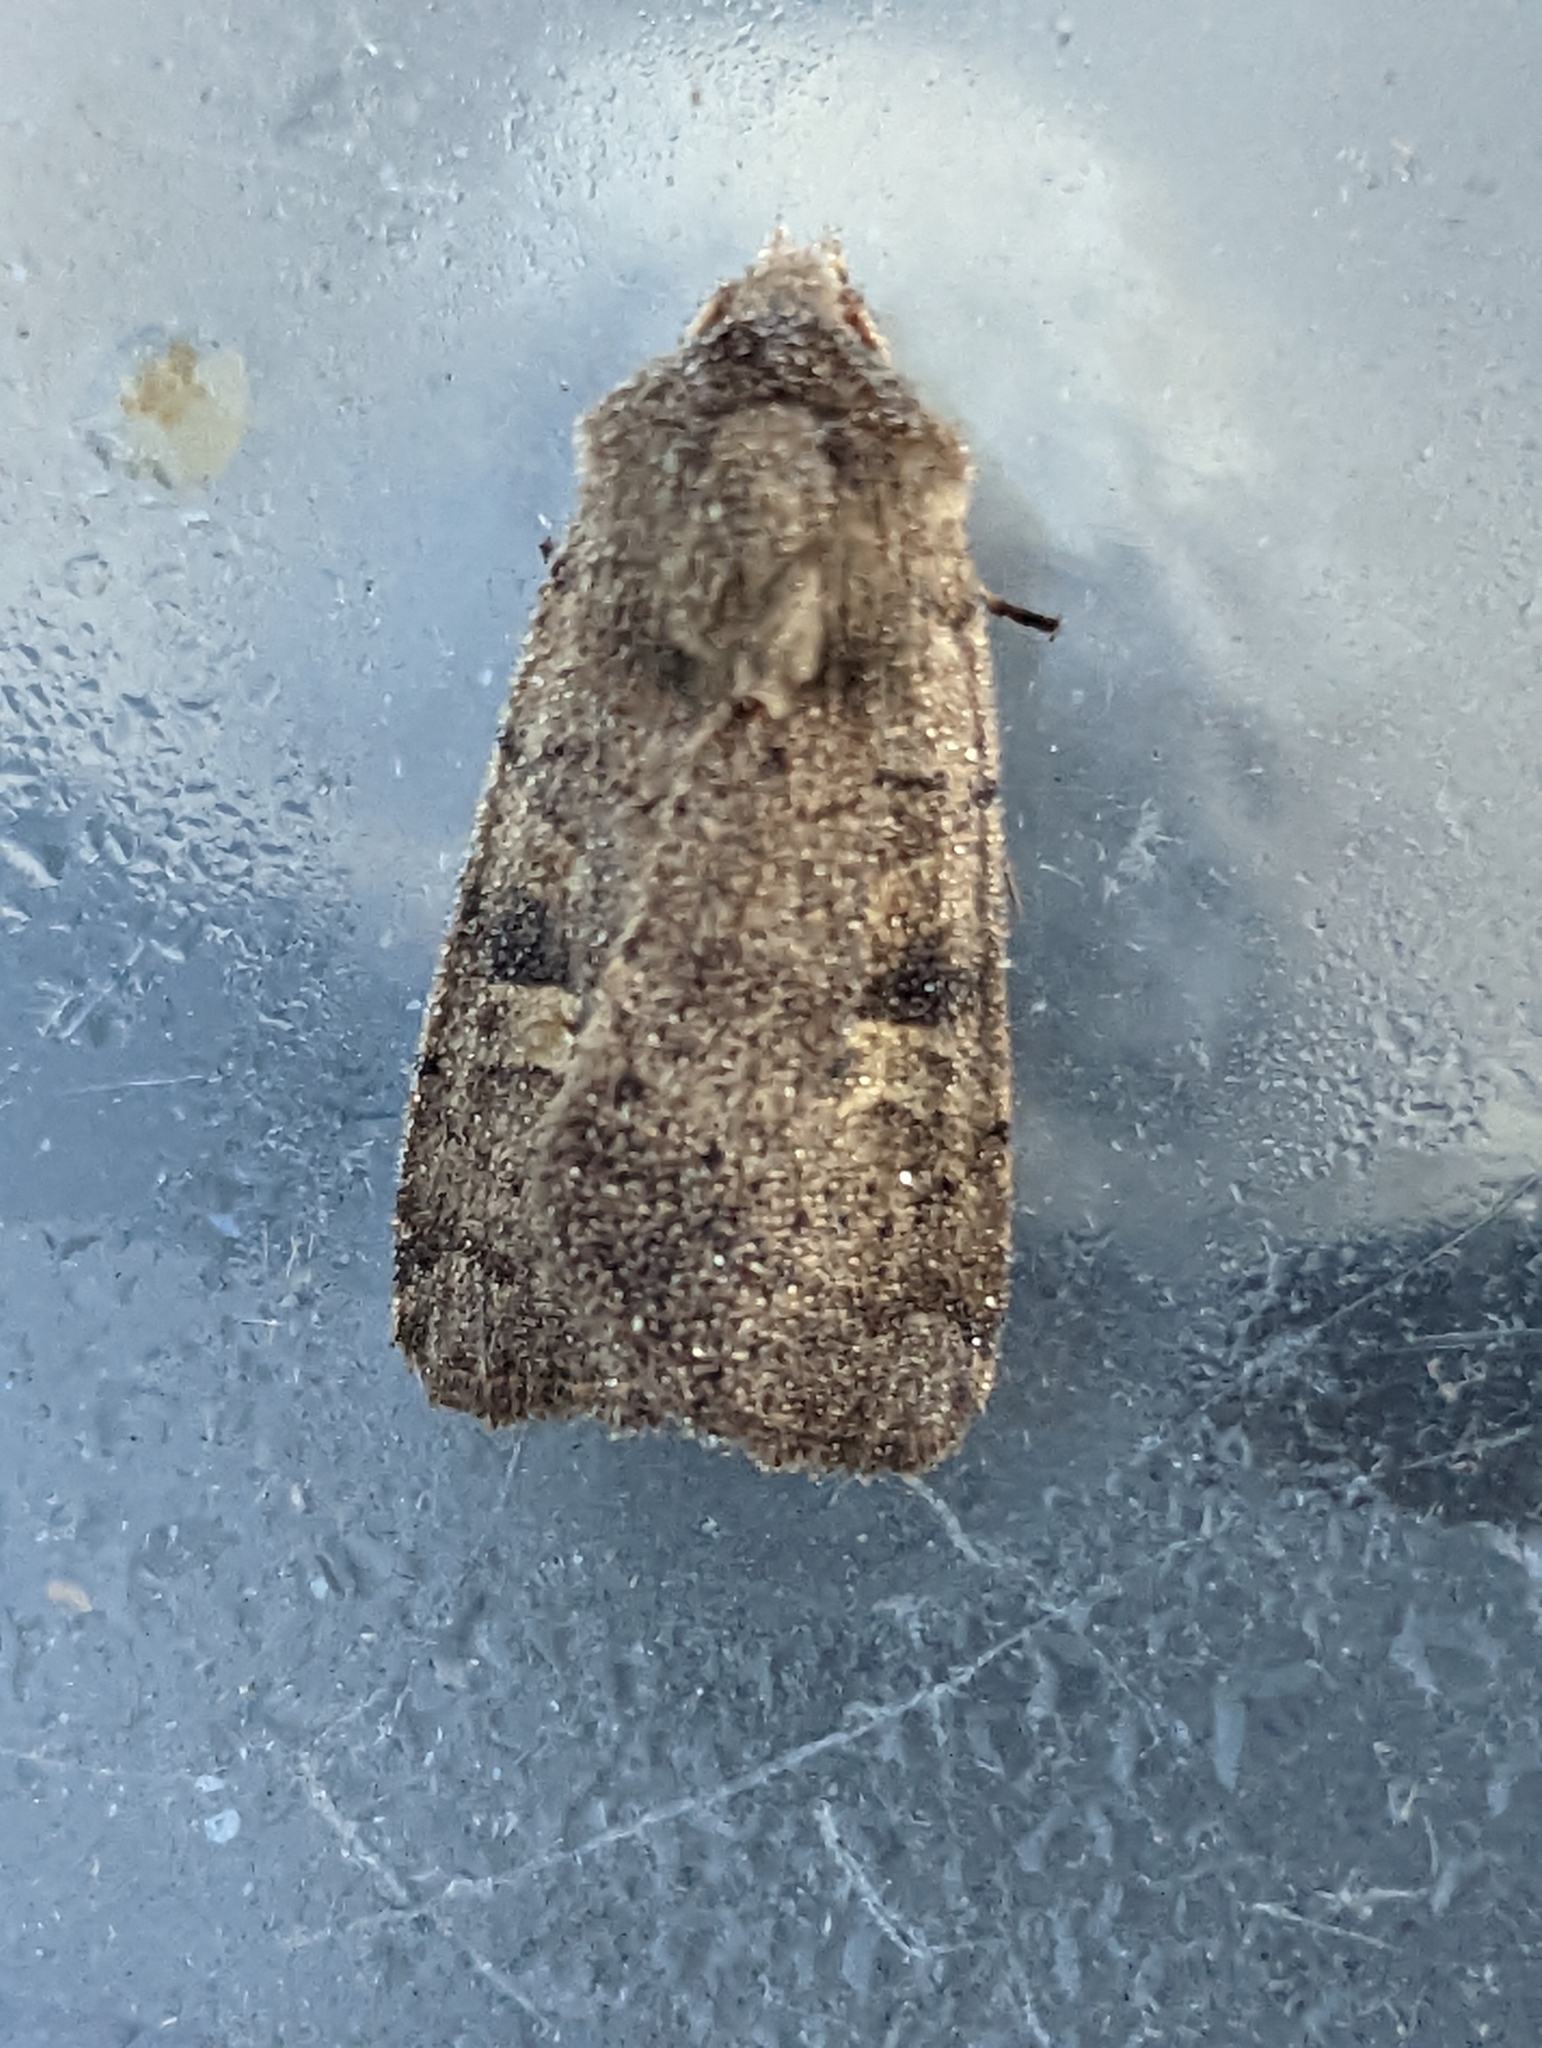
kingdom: Animalia
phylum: Arthropoda
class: Insecta
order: Lepidoptera
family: Noctuidae
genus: Xestia
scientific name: Xestia xanthographa
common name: Square-spot rustic
